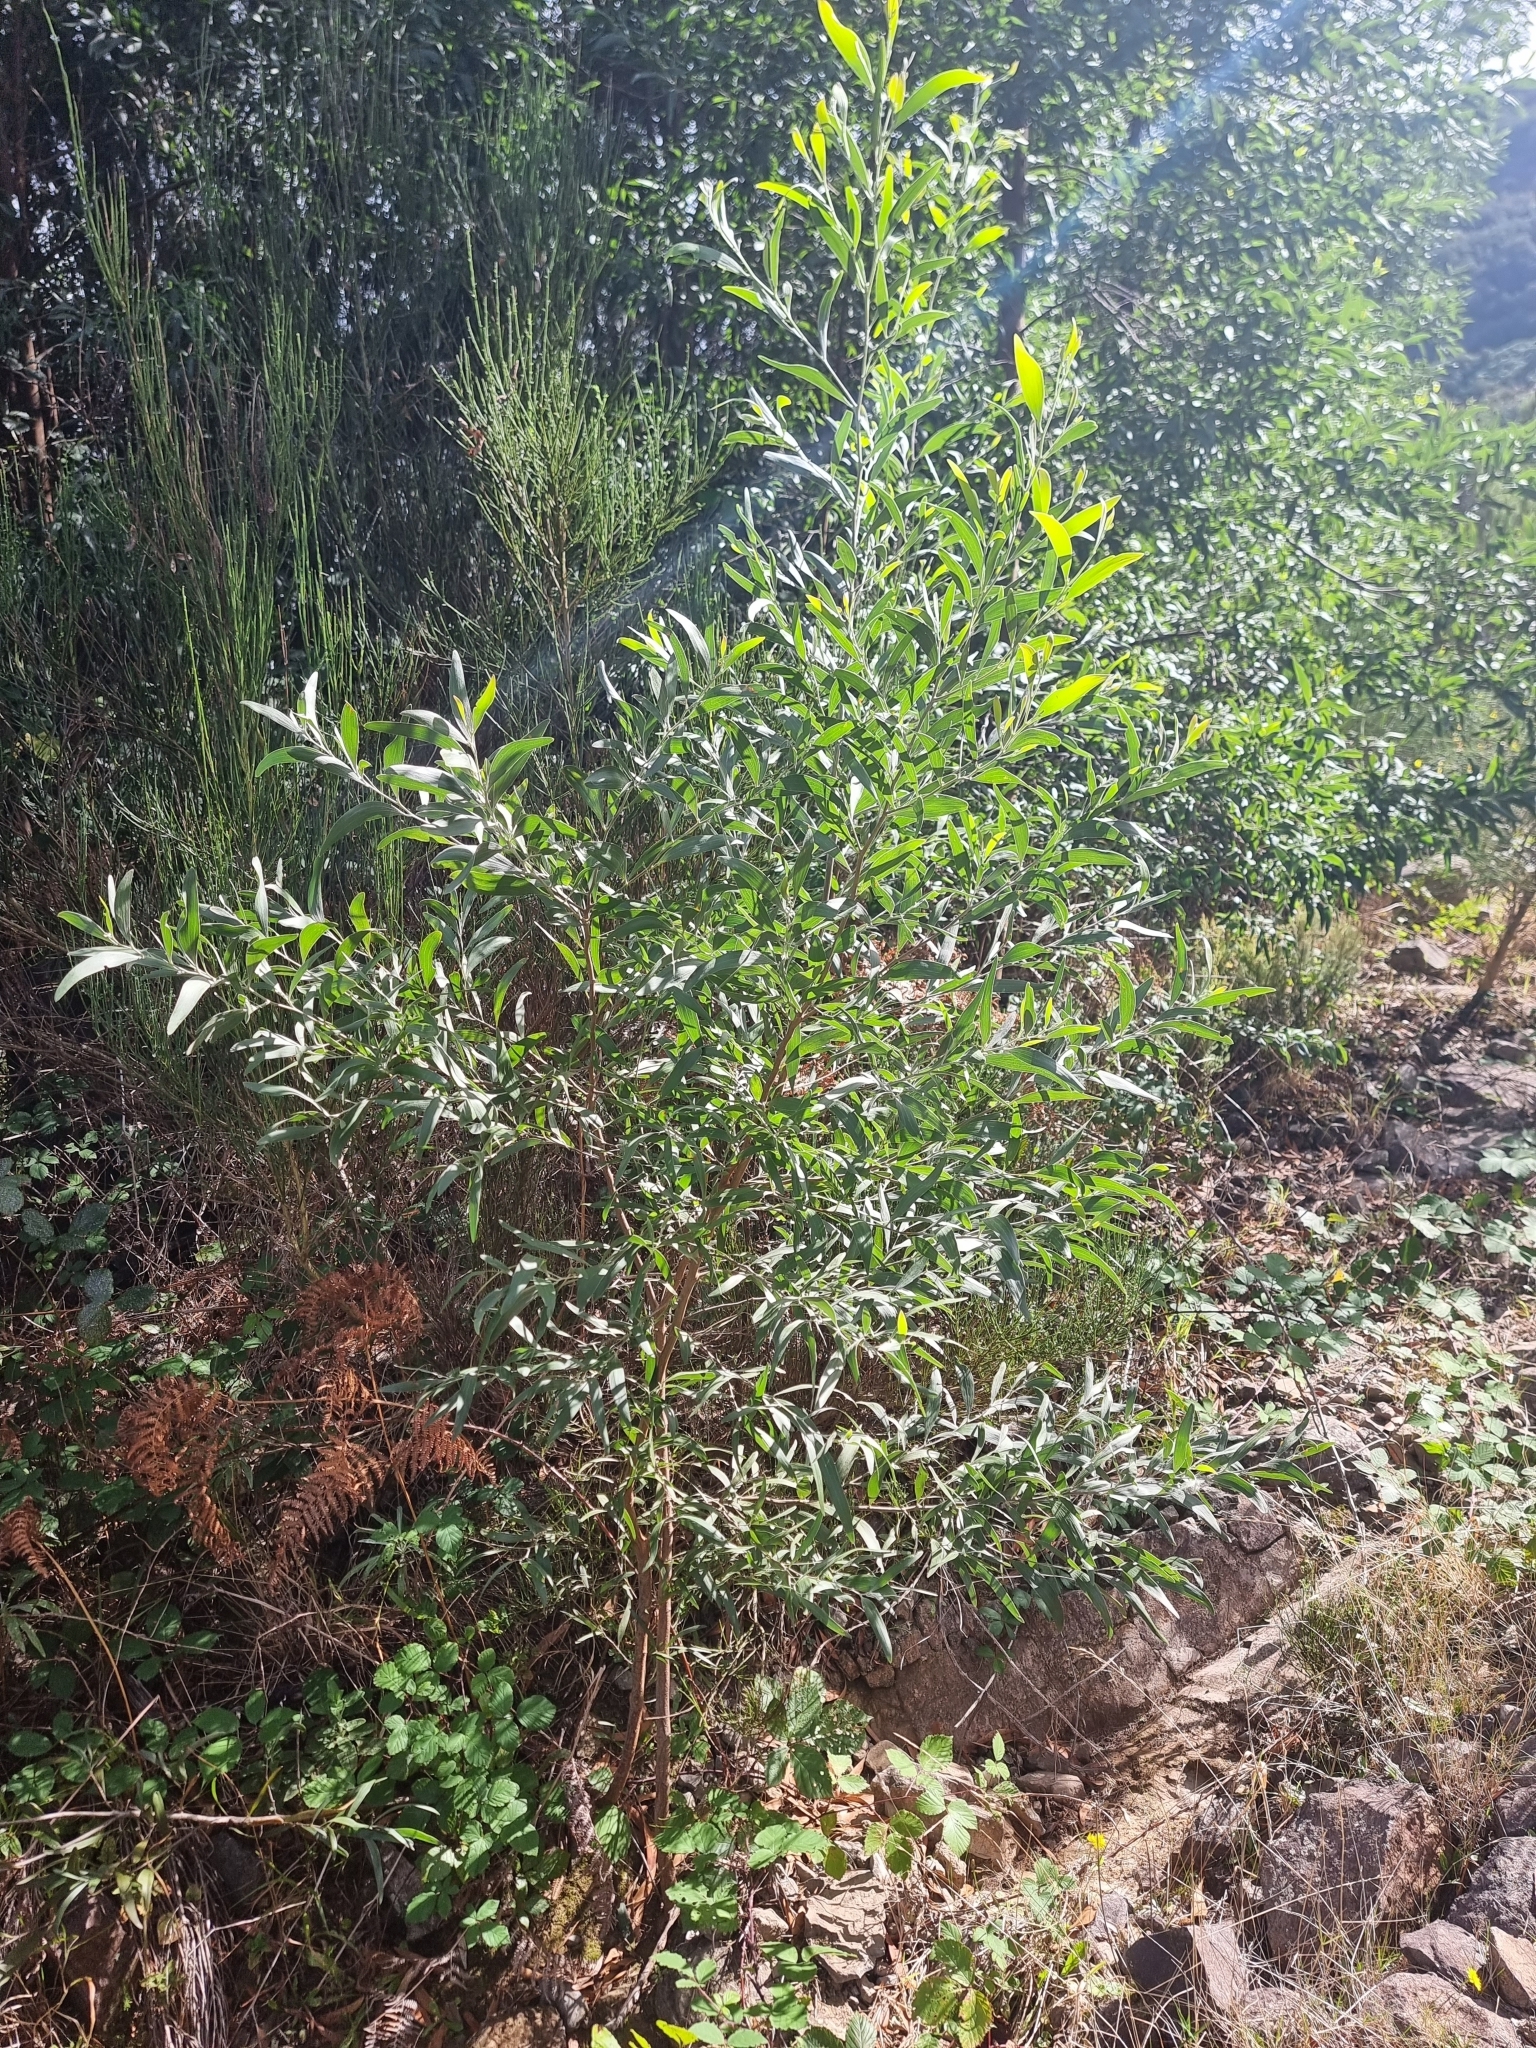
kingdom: Plantae
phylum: Tracheophyta
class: Magnoliopsida
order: Fabales
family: Fabaceae
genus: Acacia
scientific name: Acacia melanoxylon
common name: Blackwood
